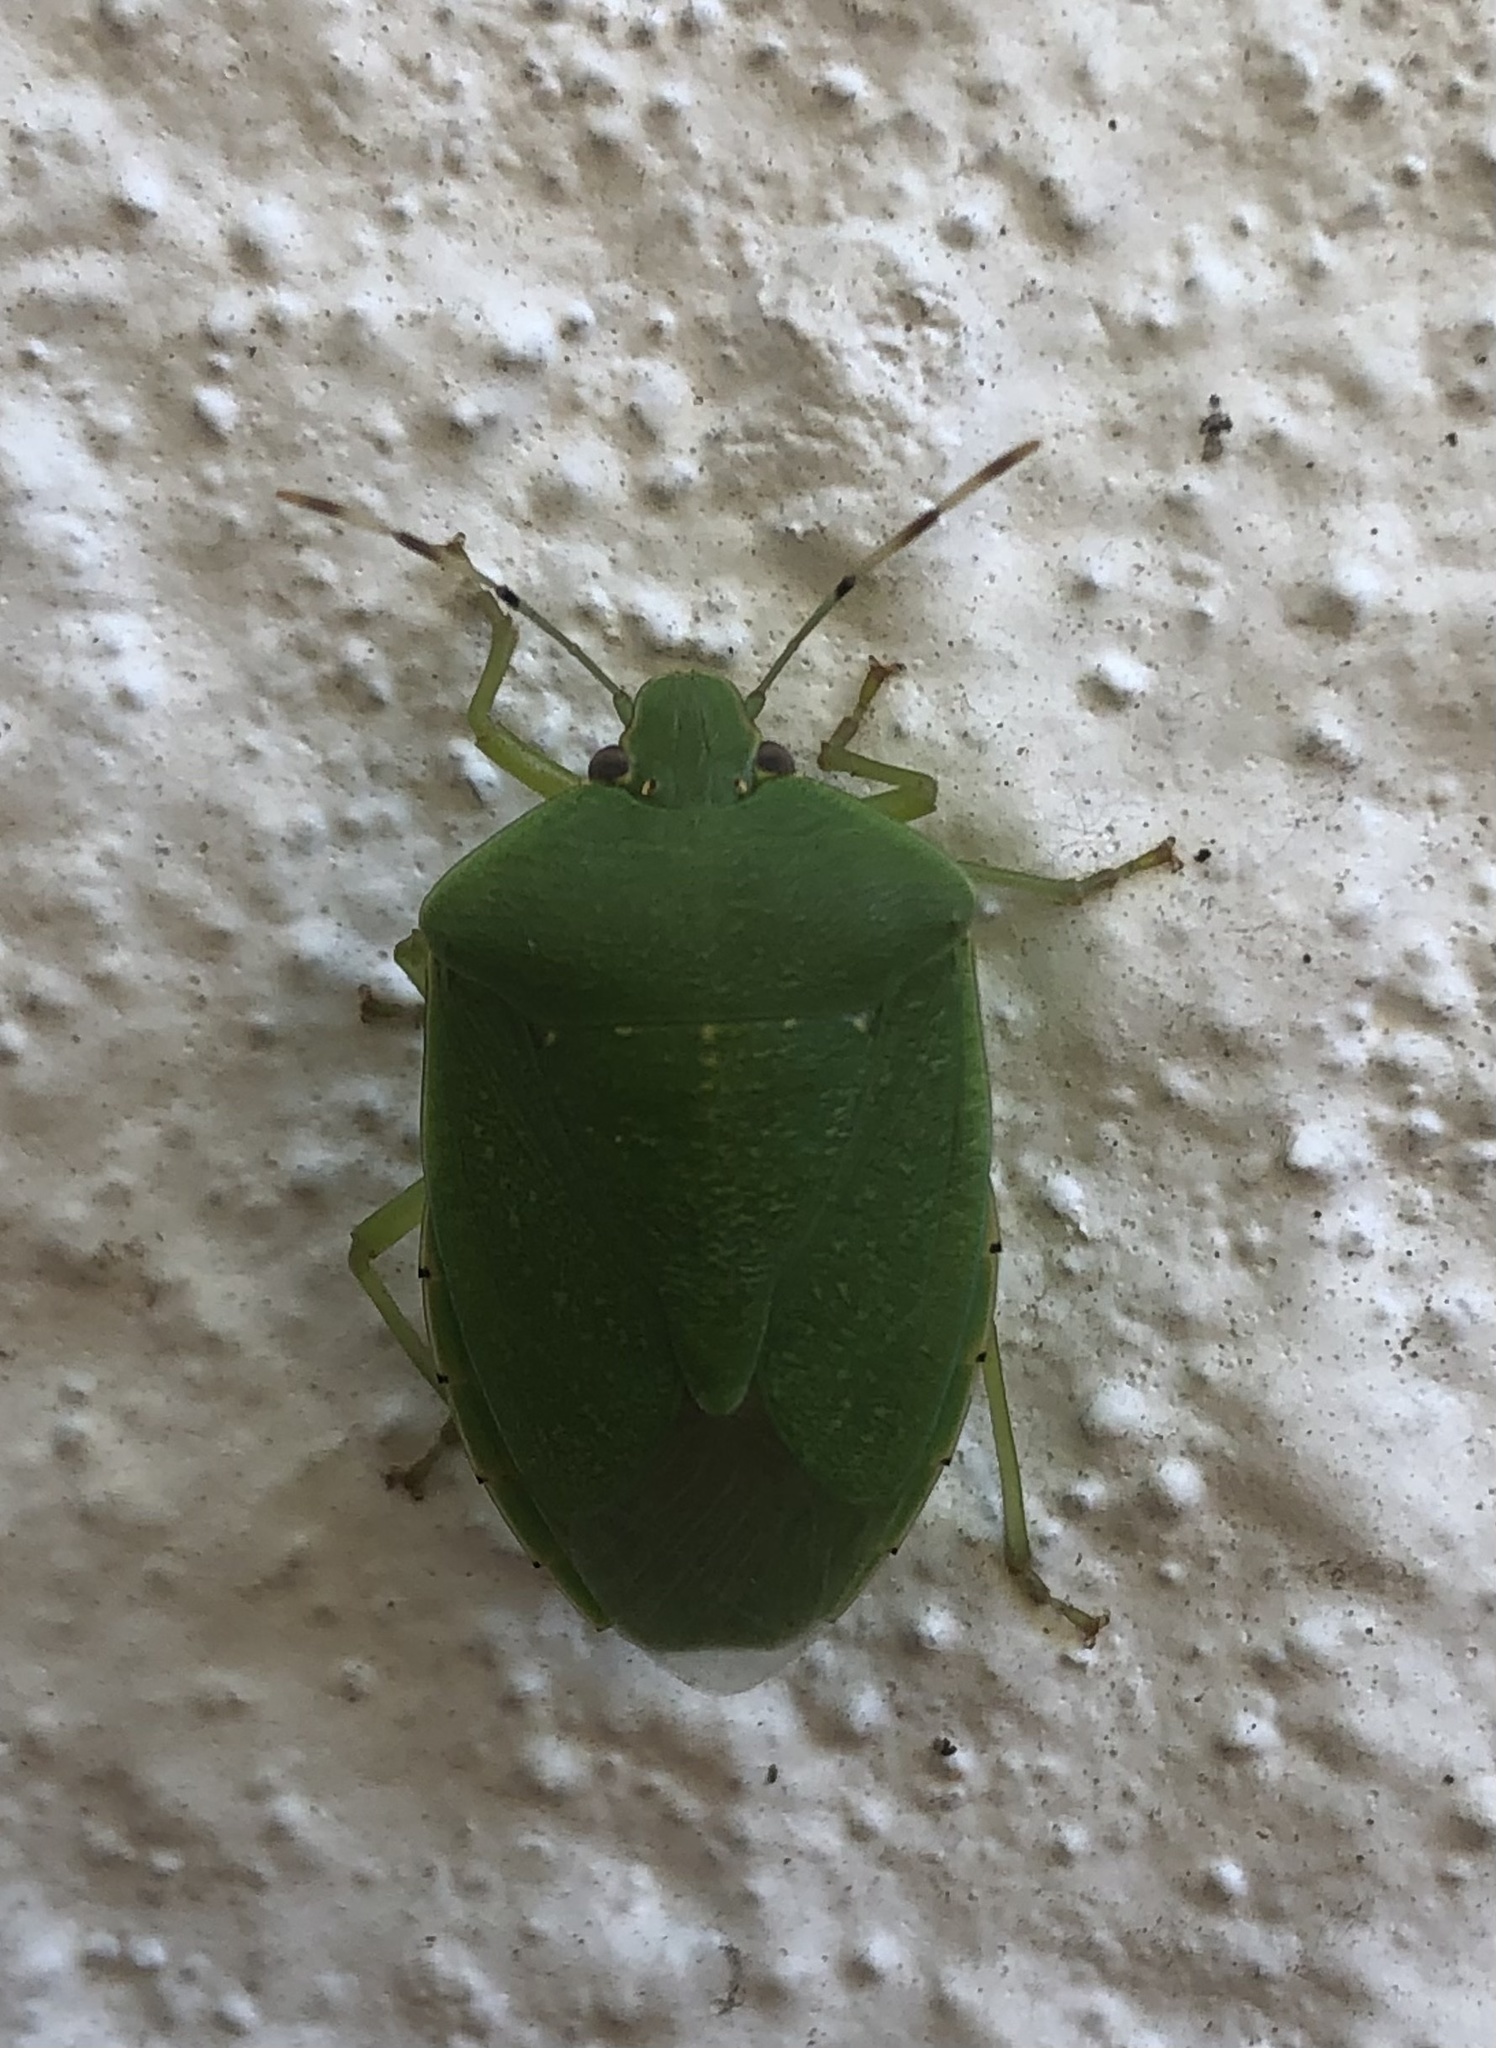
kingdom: Animalia
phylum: Arthropoda
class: Insecta
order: Hemiptera
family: Pentatomidae
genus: Chinavia
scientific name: Chinavia hilaris
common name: Green stink bug
